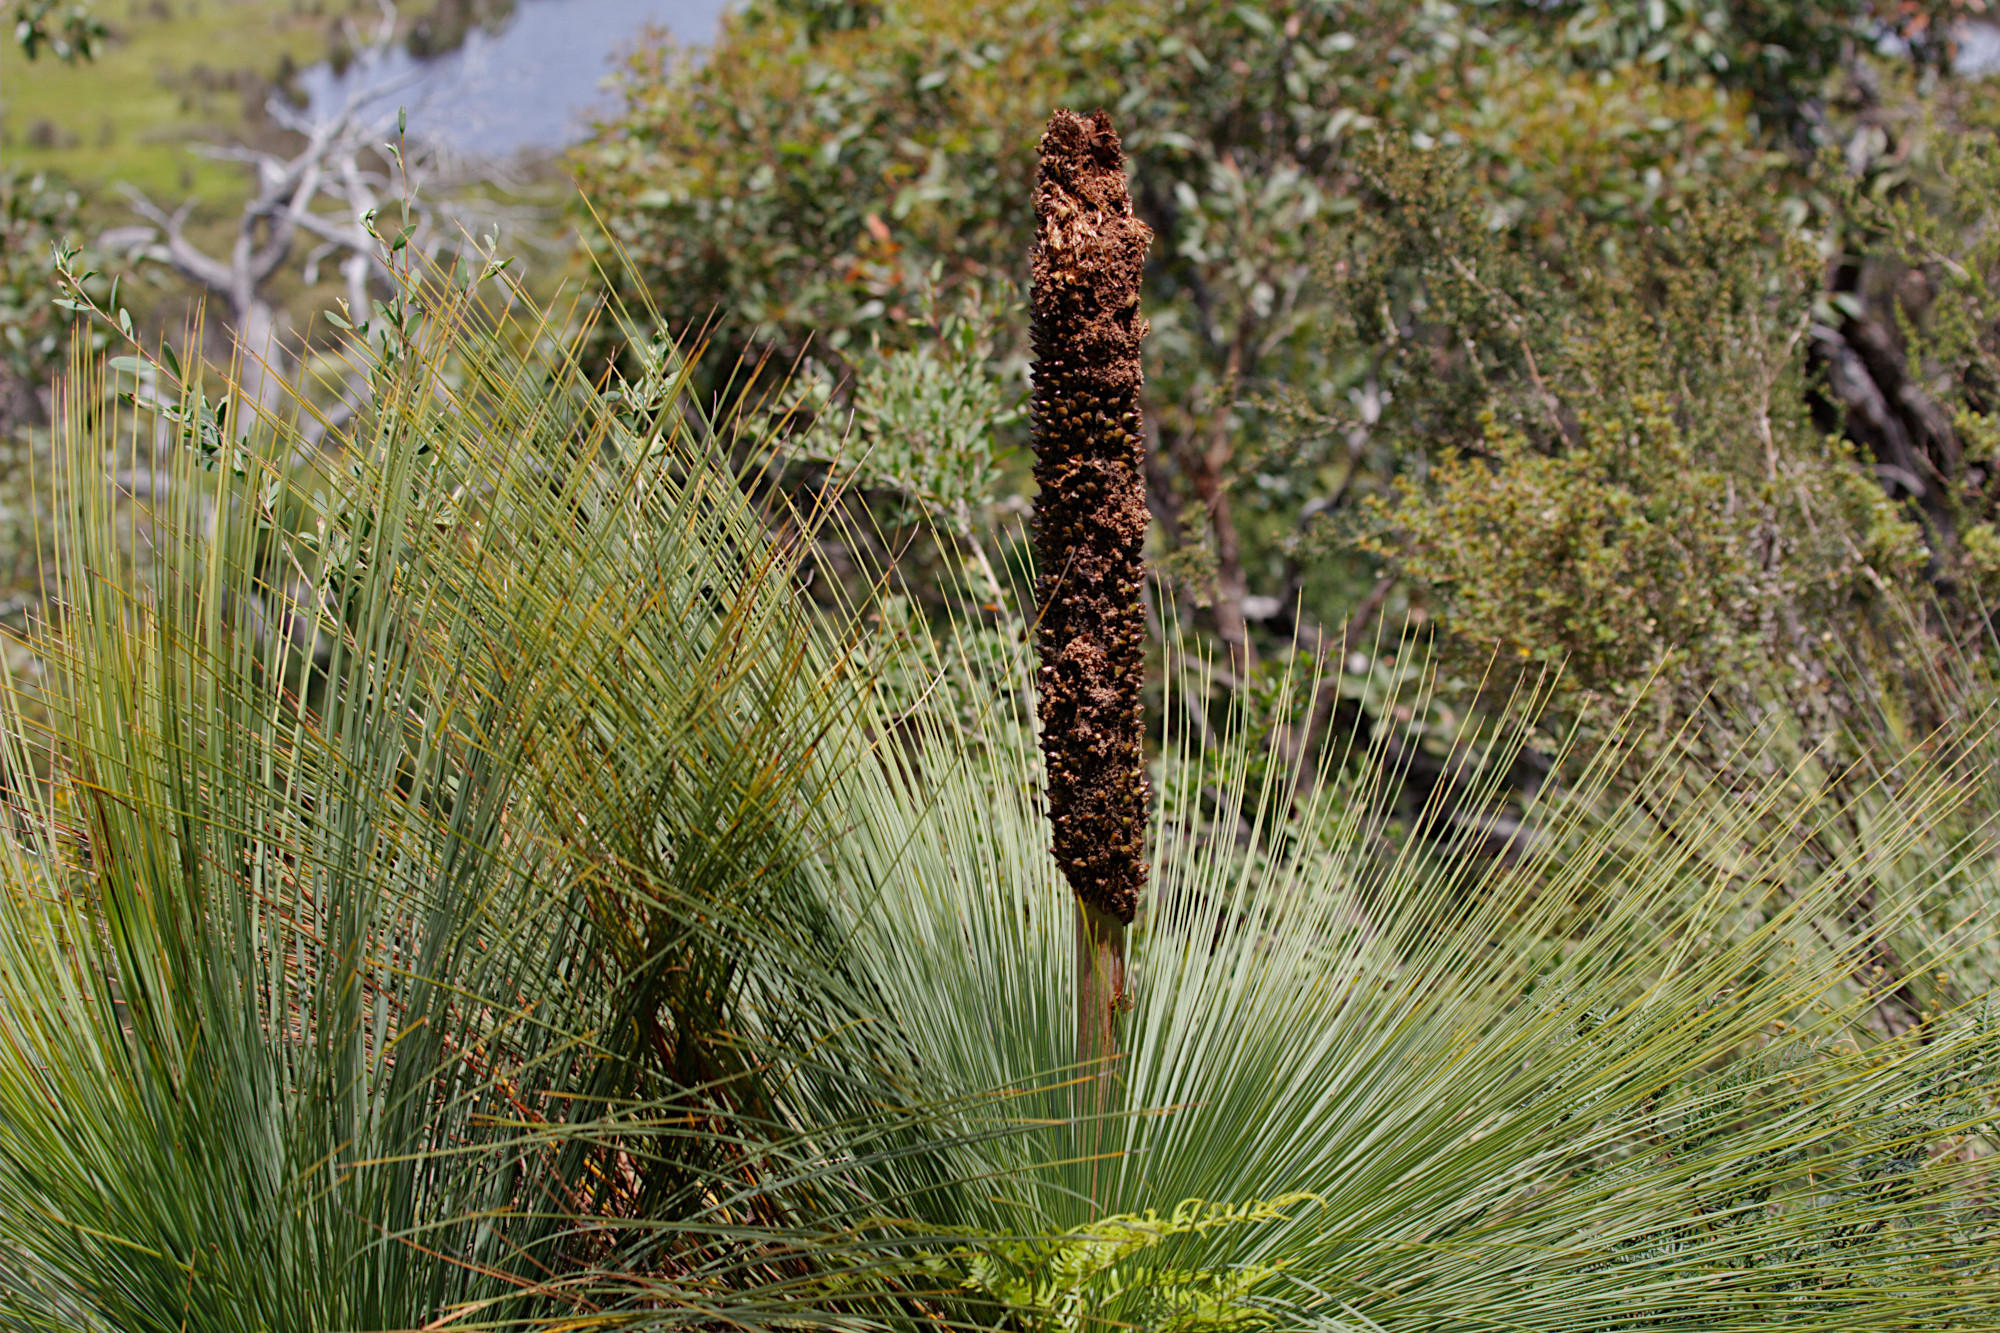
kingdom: Plantae
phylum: Tracheophyta
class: Liliopsida
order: Asparagales
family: Asphodelaceae
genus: Xanthorrhoea
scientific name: Xanthorrhoea australis
